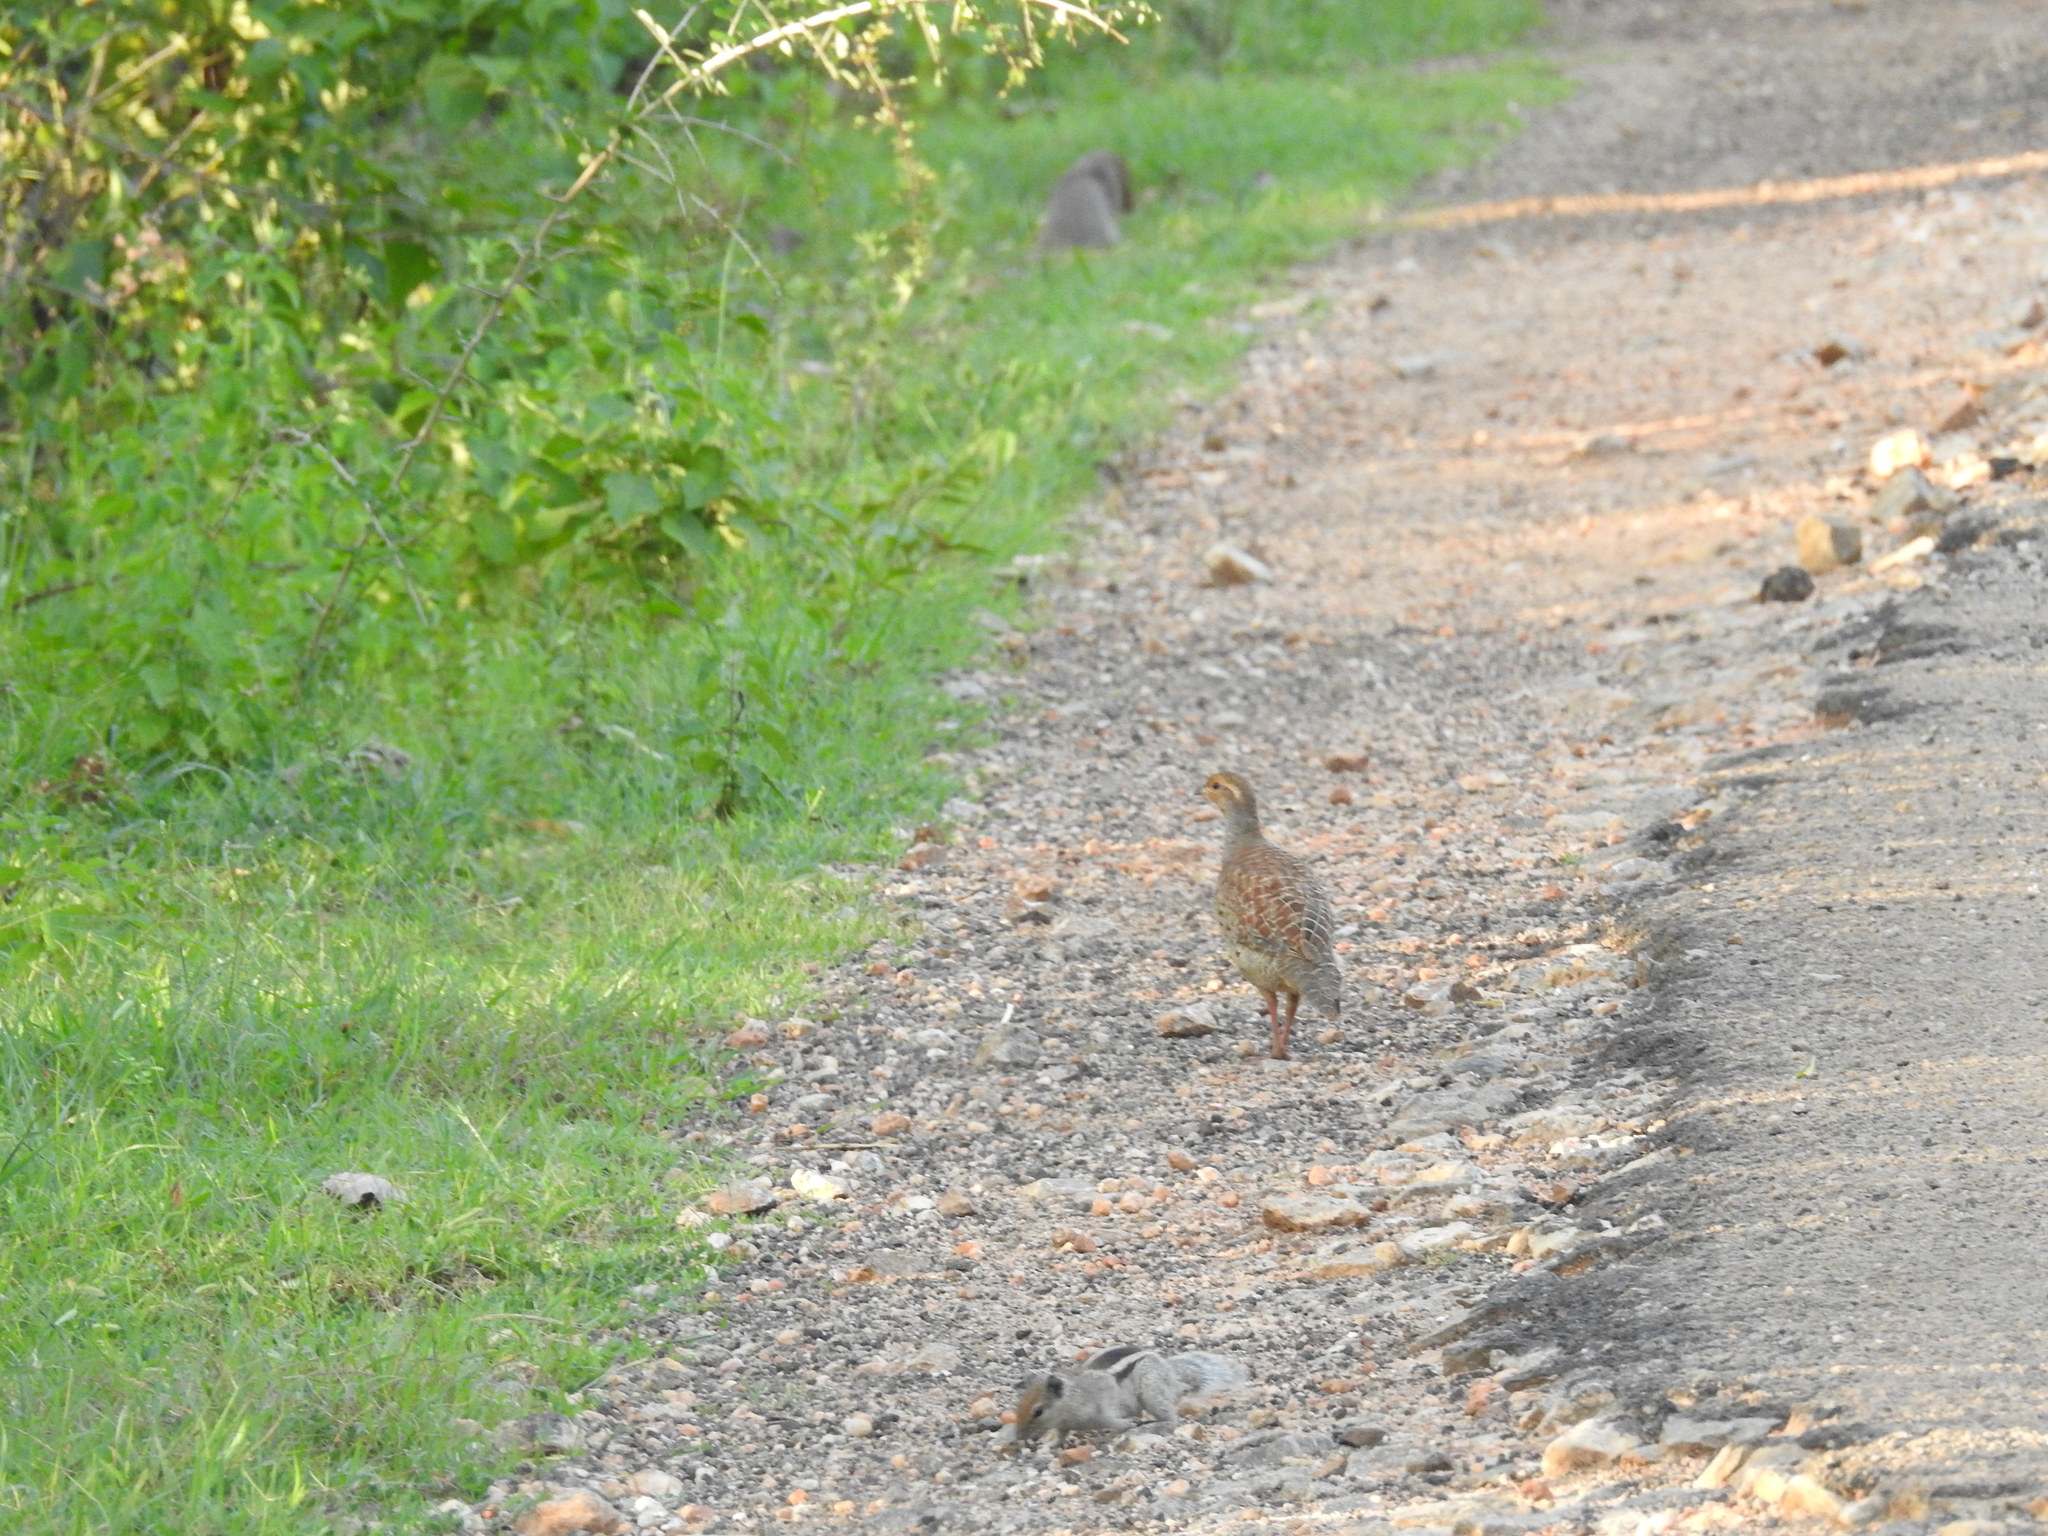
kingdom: Animalia
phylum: Chordata
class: Mammalia
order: Rodentia
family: Sciuridae
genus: Funambulus
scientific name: Funambulus palmarum
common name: Indian palm squirrel
